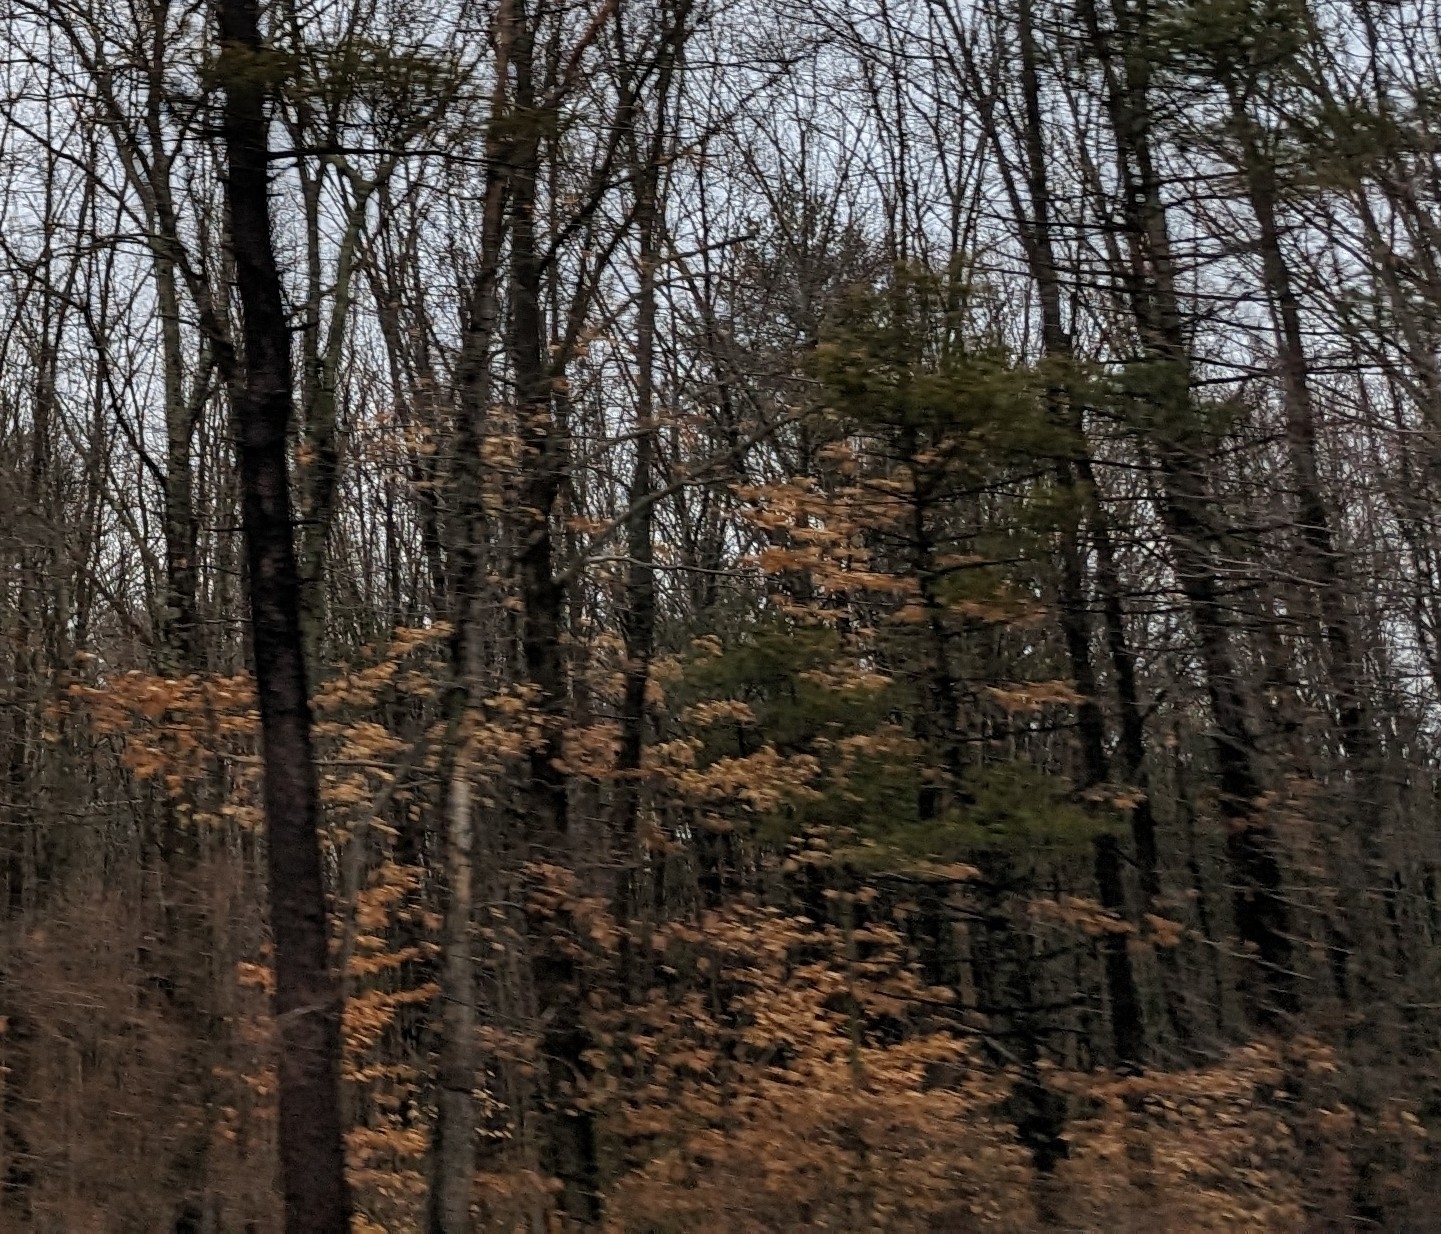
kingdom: Plantae
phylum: Tracheophyta
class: Magnoliopsida
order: Fagales
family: Fagaceae
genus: Fagus
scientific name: Fagus grandifolia
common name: American beech
